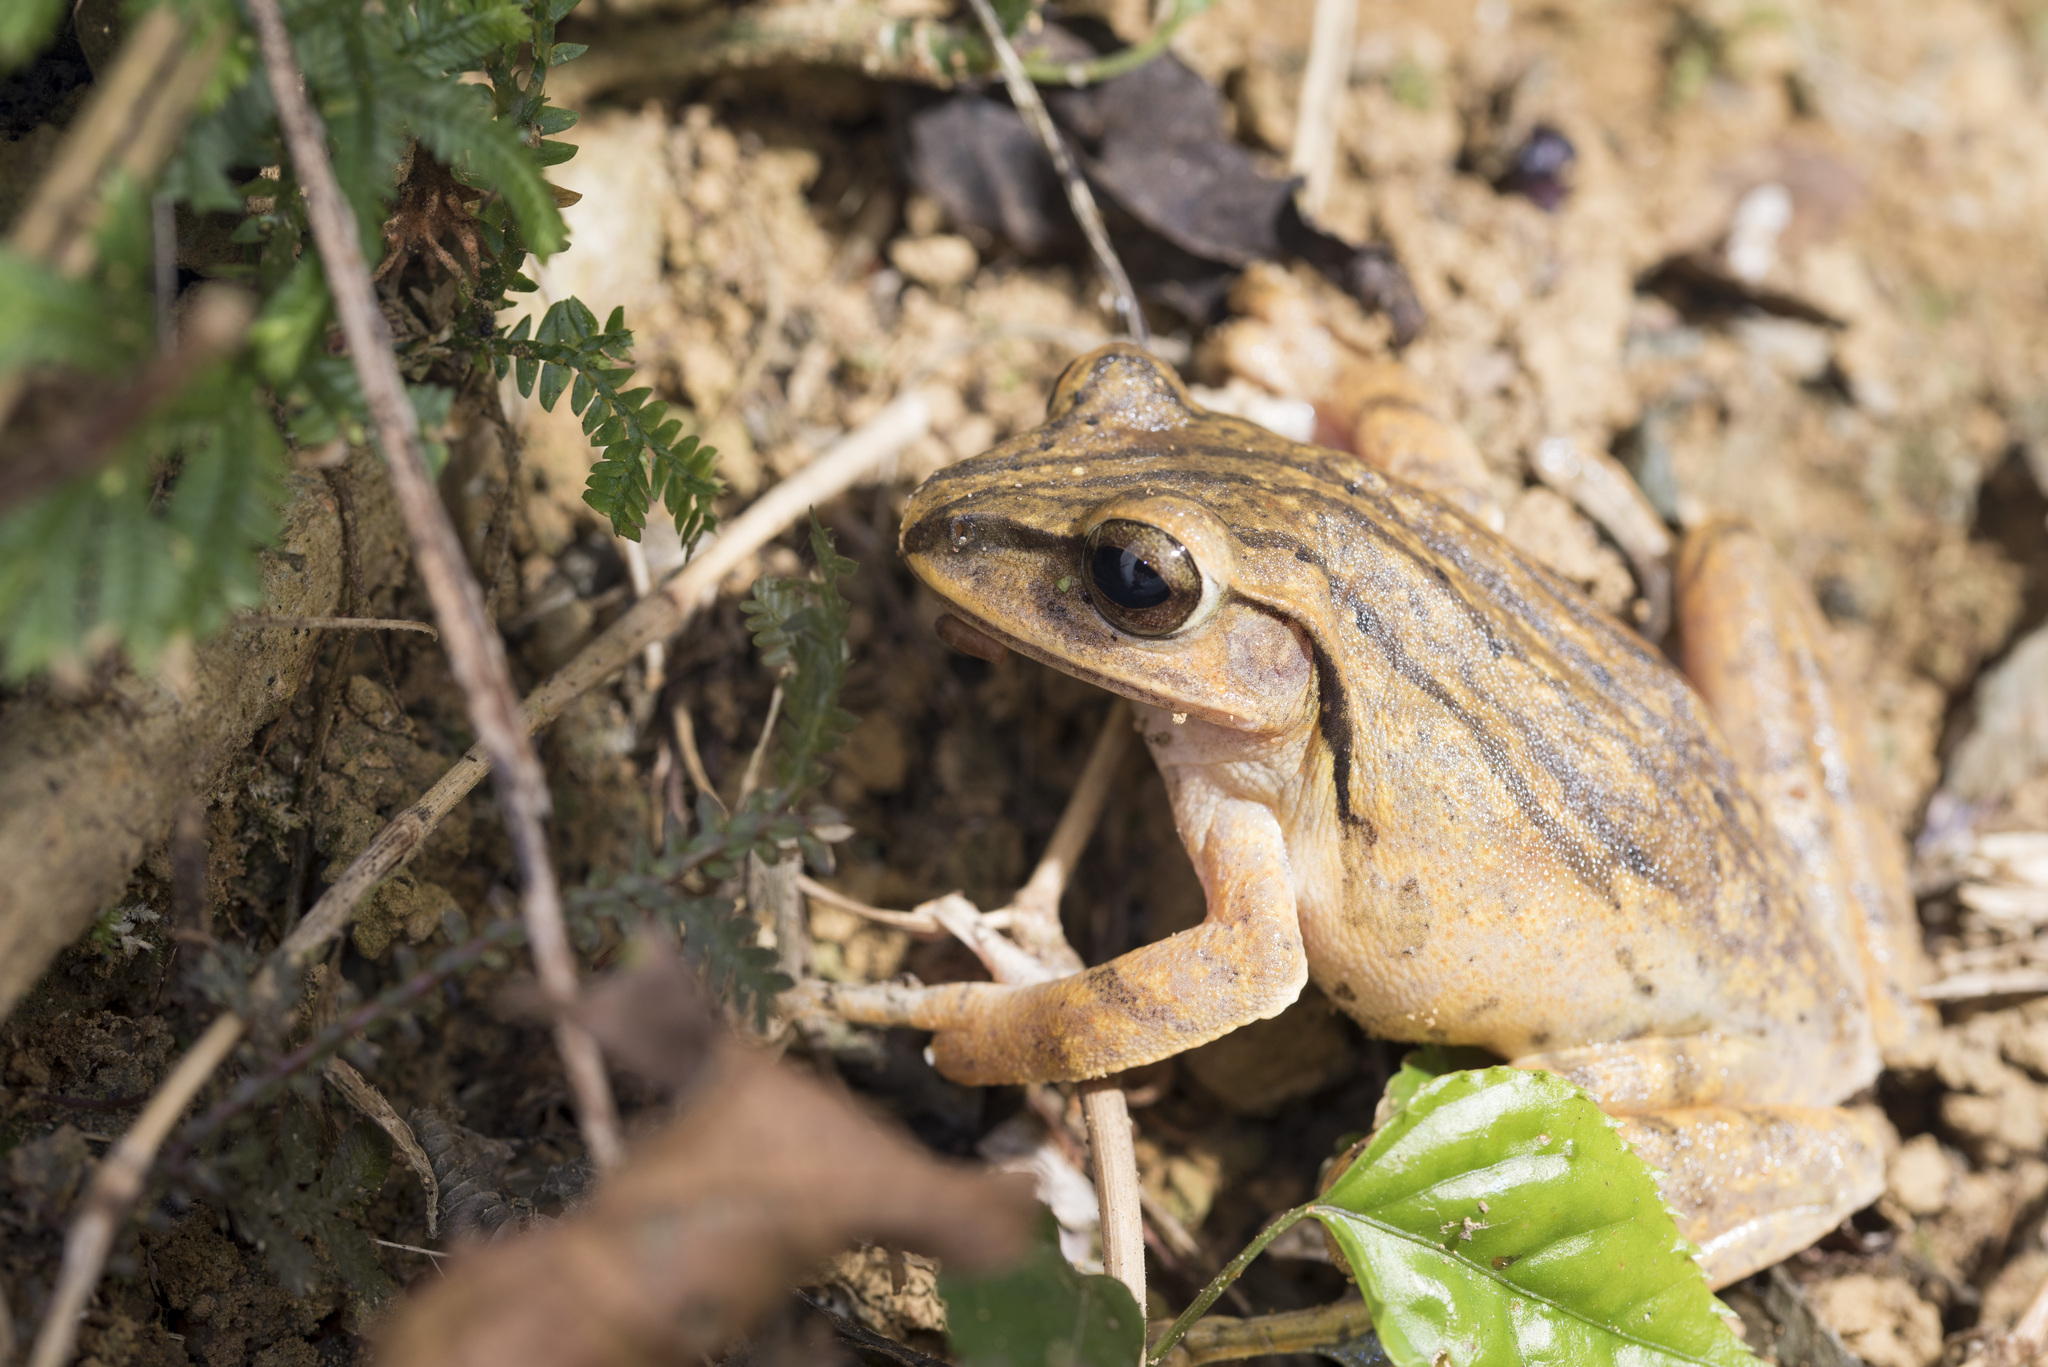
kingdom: Animalia
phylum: Chordata
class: Amphibia
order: Anura
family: Rhacophoridae
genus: Polypedates
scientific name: Polypedates braueri
